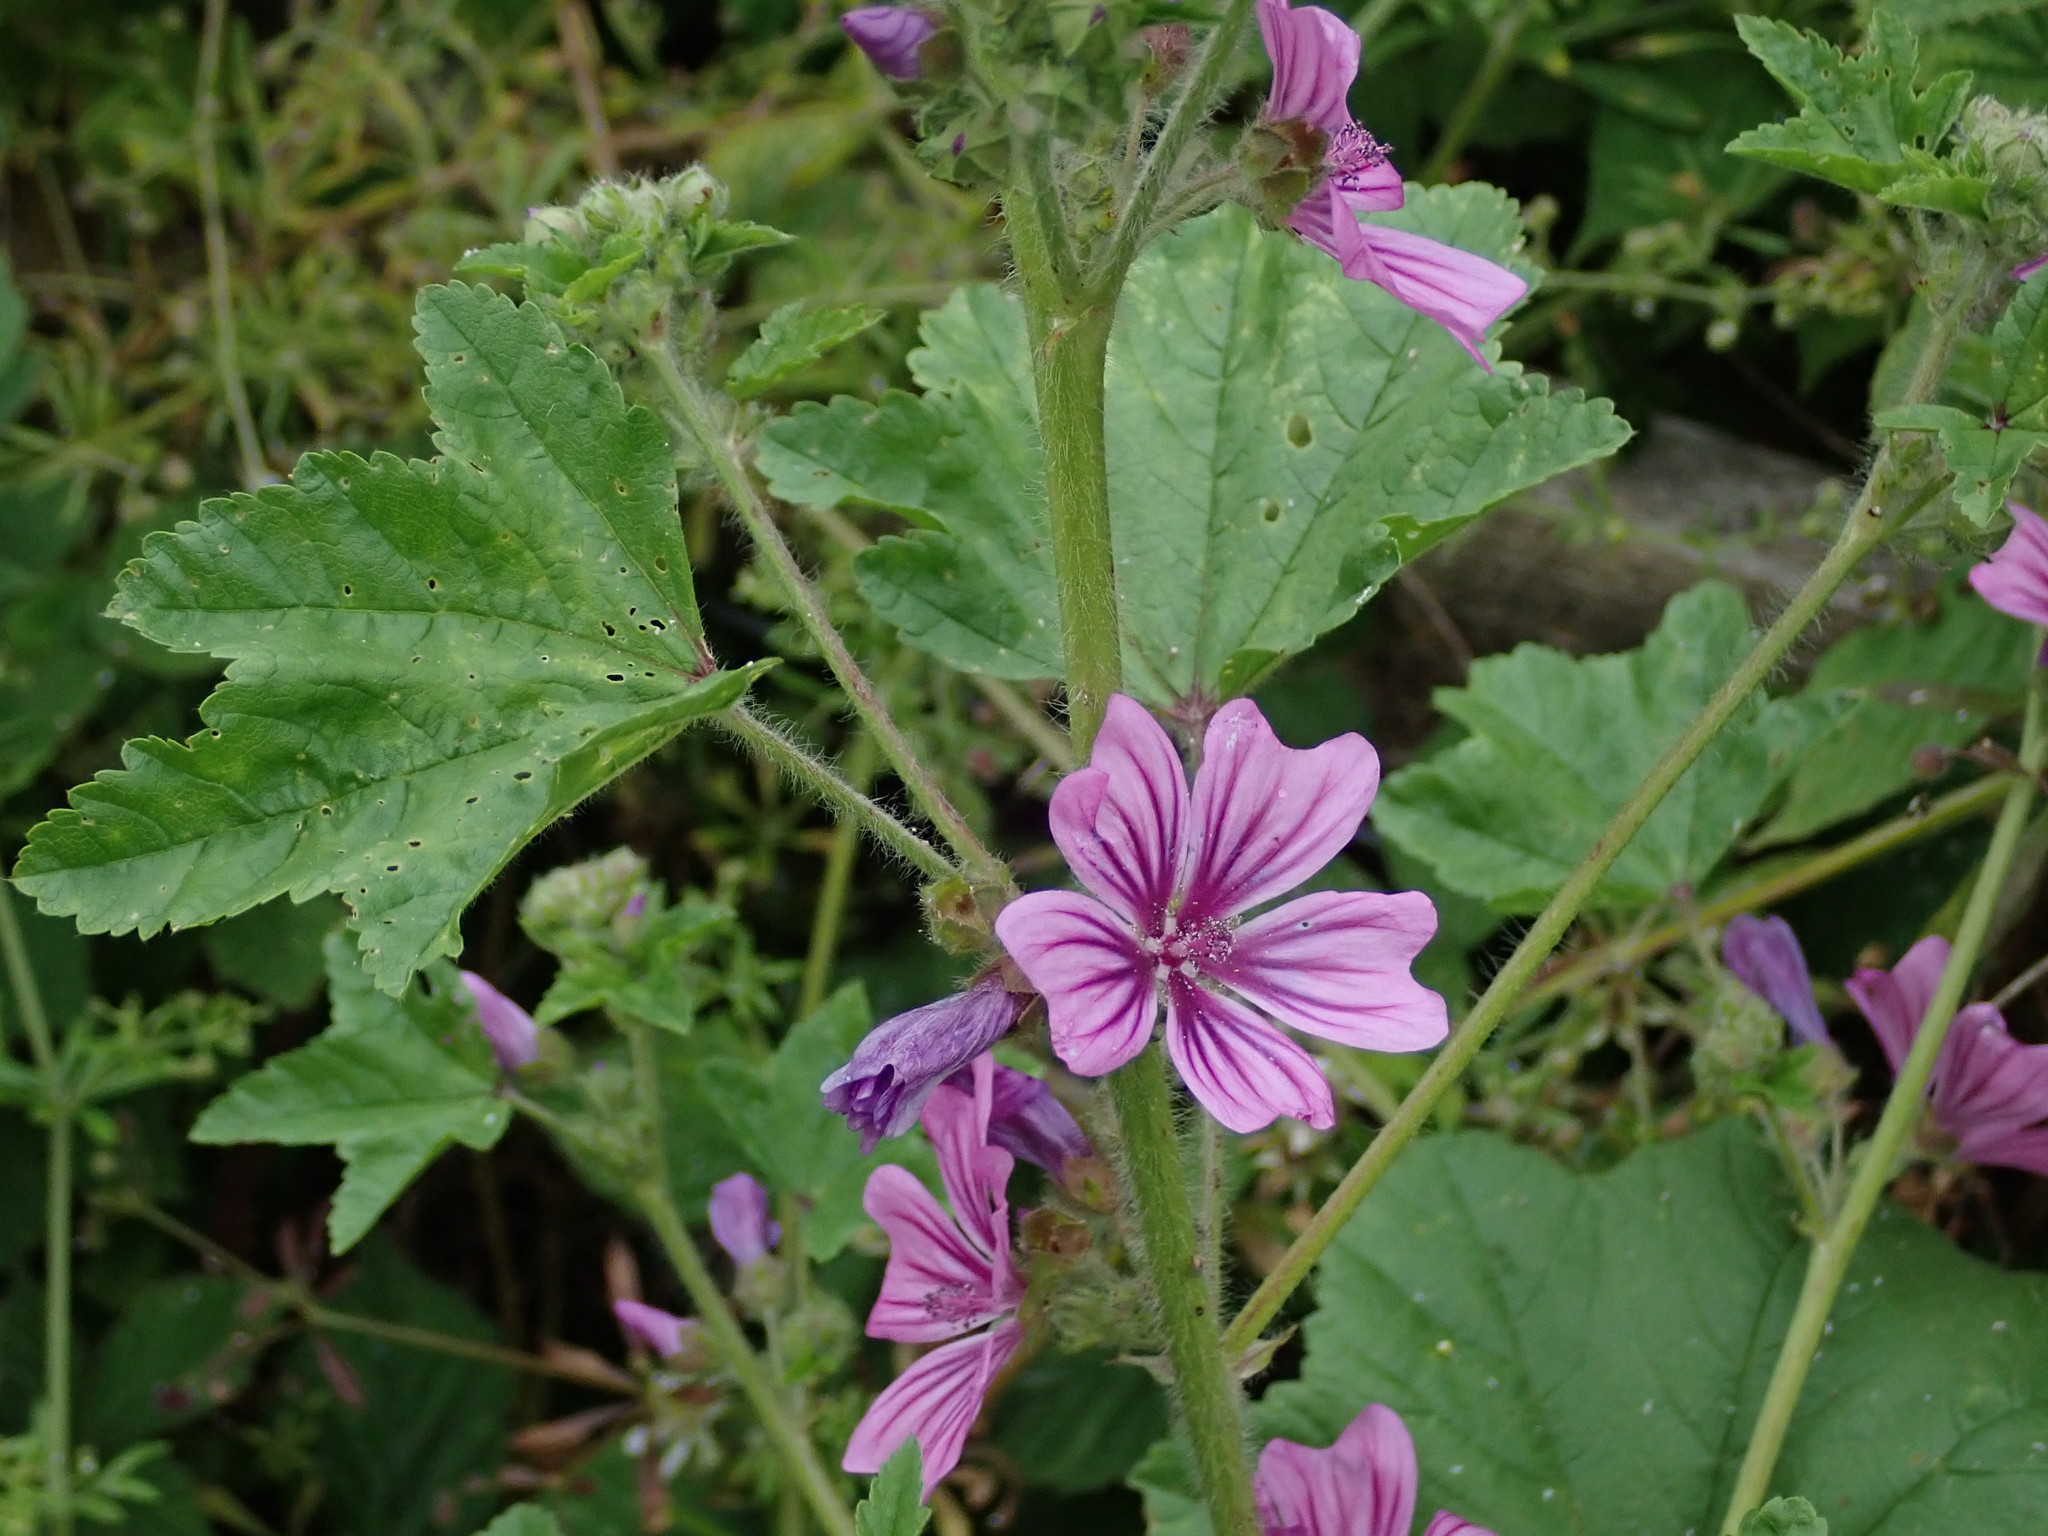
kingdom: Plantae
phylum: Tracheophyta
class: Magnoliopsida
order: Malvales
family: Malvaceae
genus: Malva
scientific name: Malva sylvestris
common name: Common mallow
